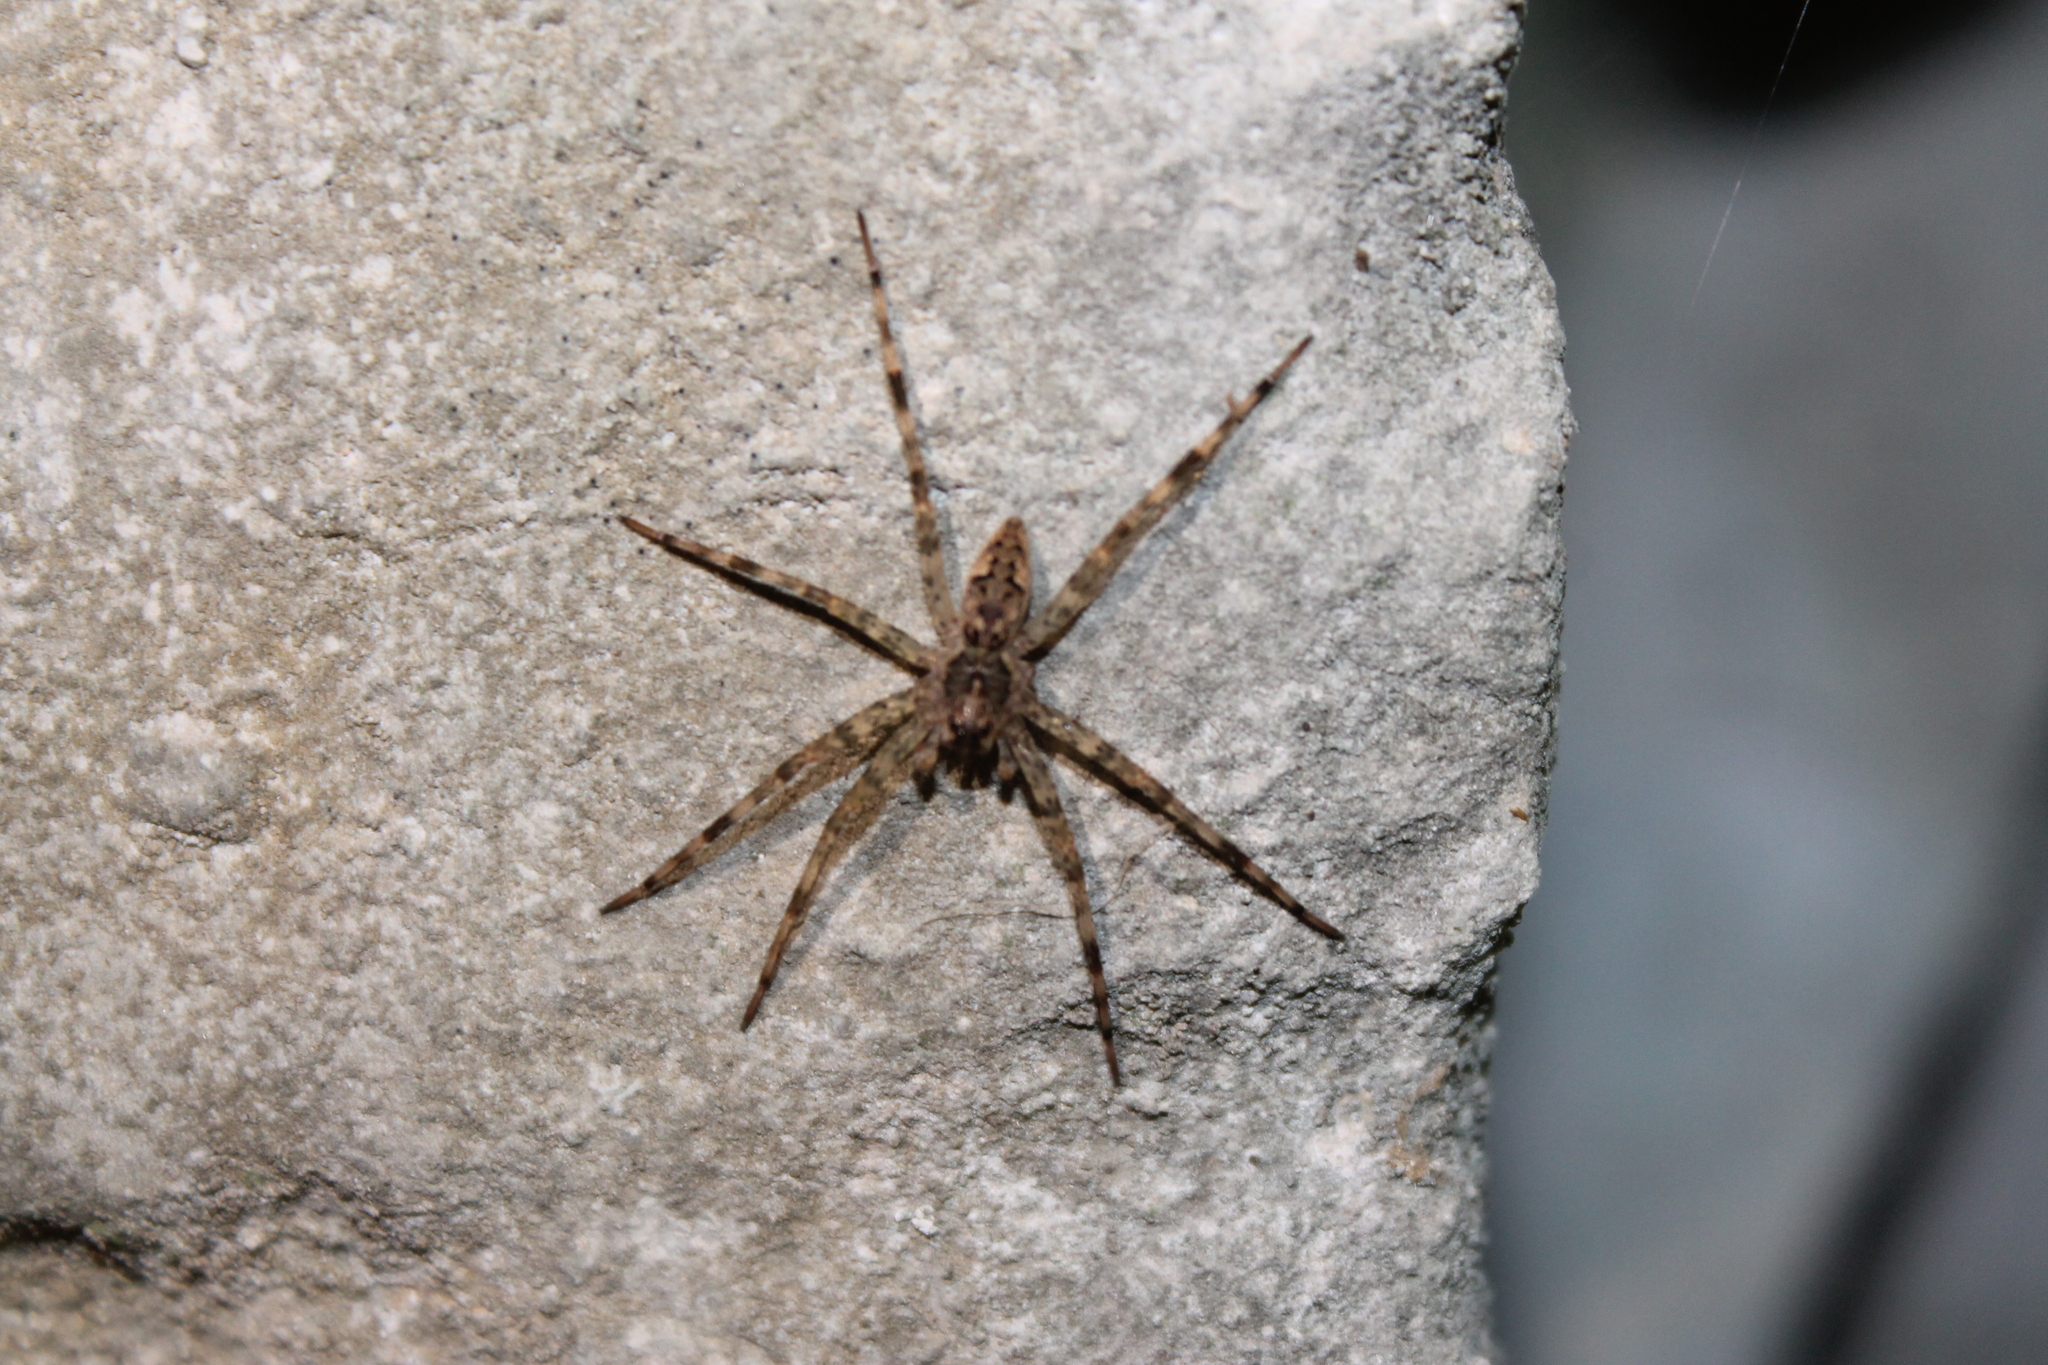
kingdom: Animalia
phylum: Arthropoda
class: Arachnida
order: Araneae
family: Pisauridae
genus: Dolomedes
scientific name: Dolomedes tenebrosus
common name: Dark fishing spider
